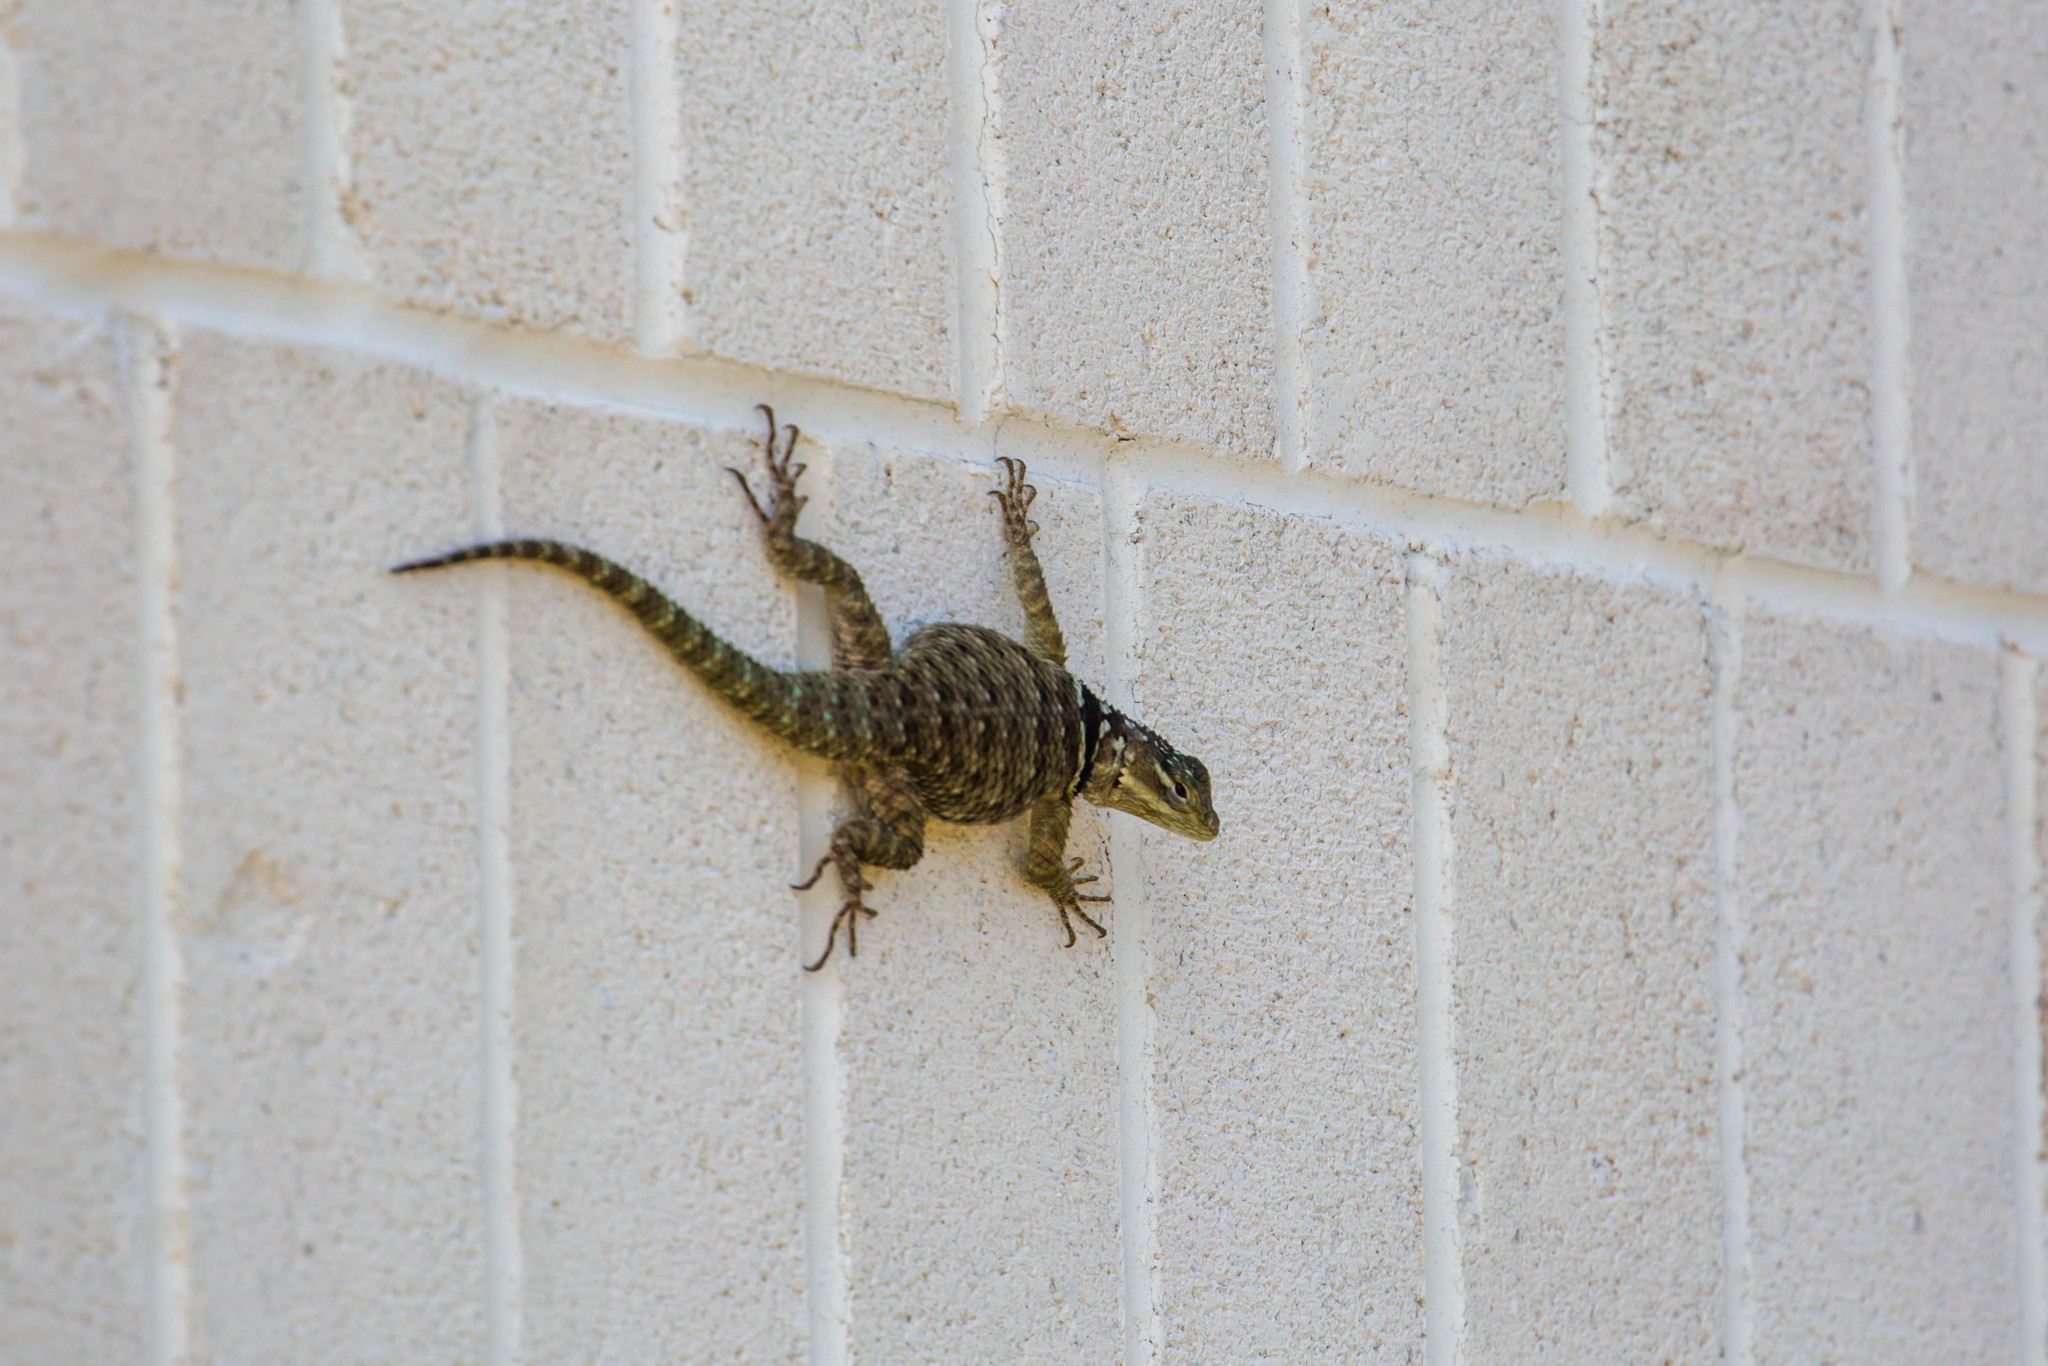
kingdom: Animalia
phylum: Chordata
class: Squamata
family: Phrynosomatidae
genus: Sceloporus
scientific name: Sceloporus cyanogenys
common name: Blue spiny lizard
